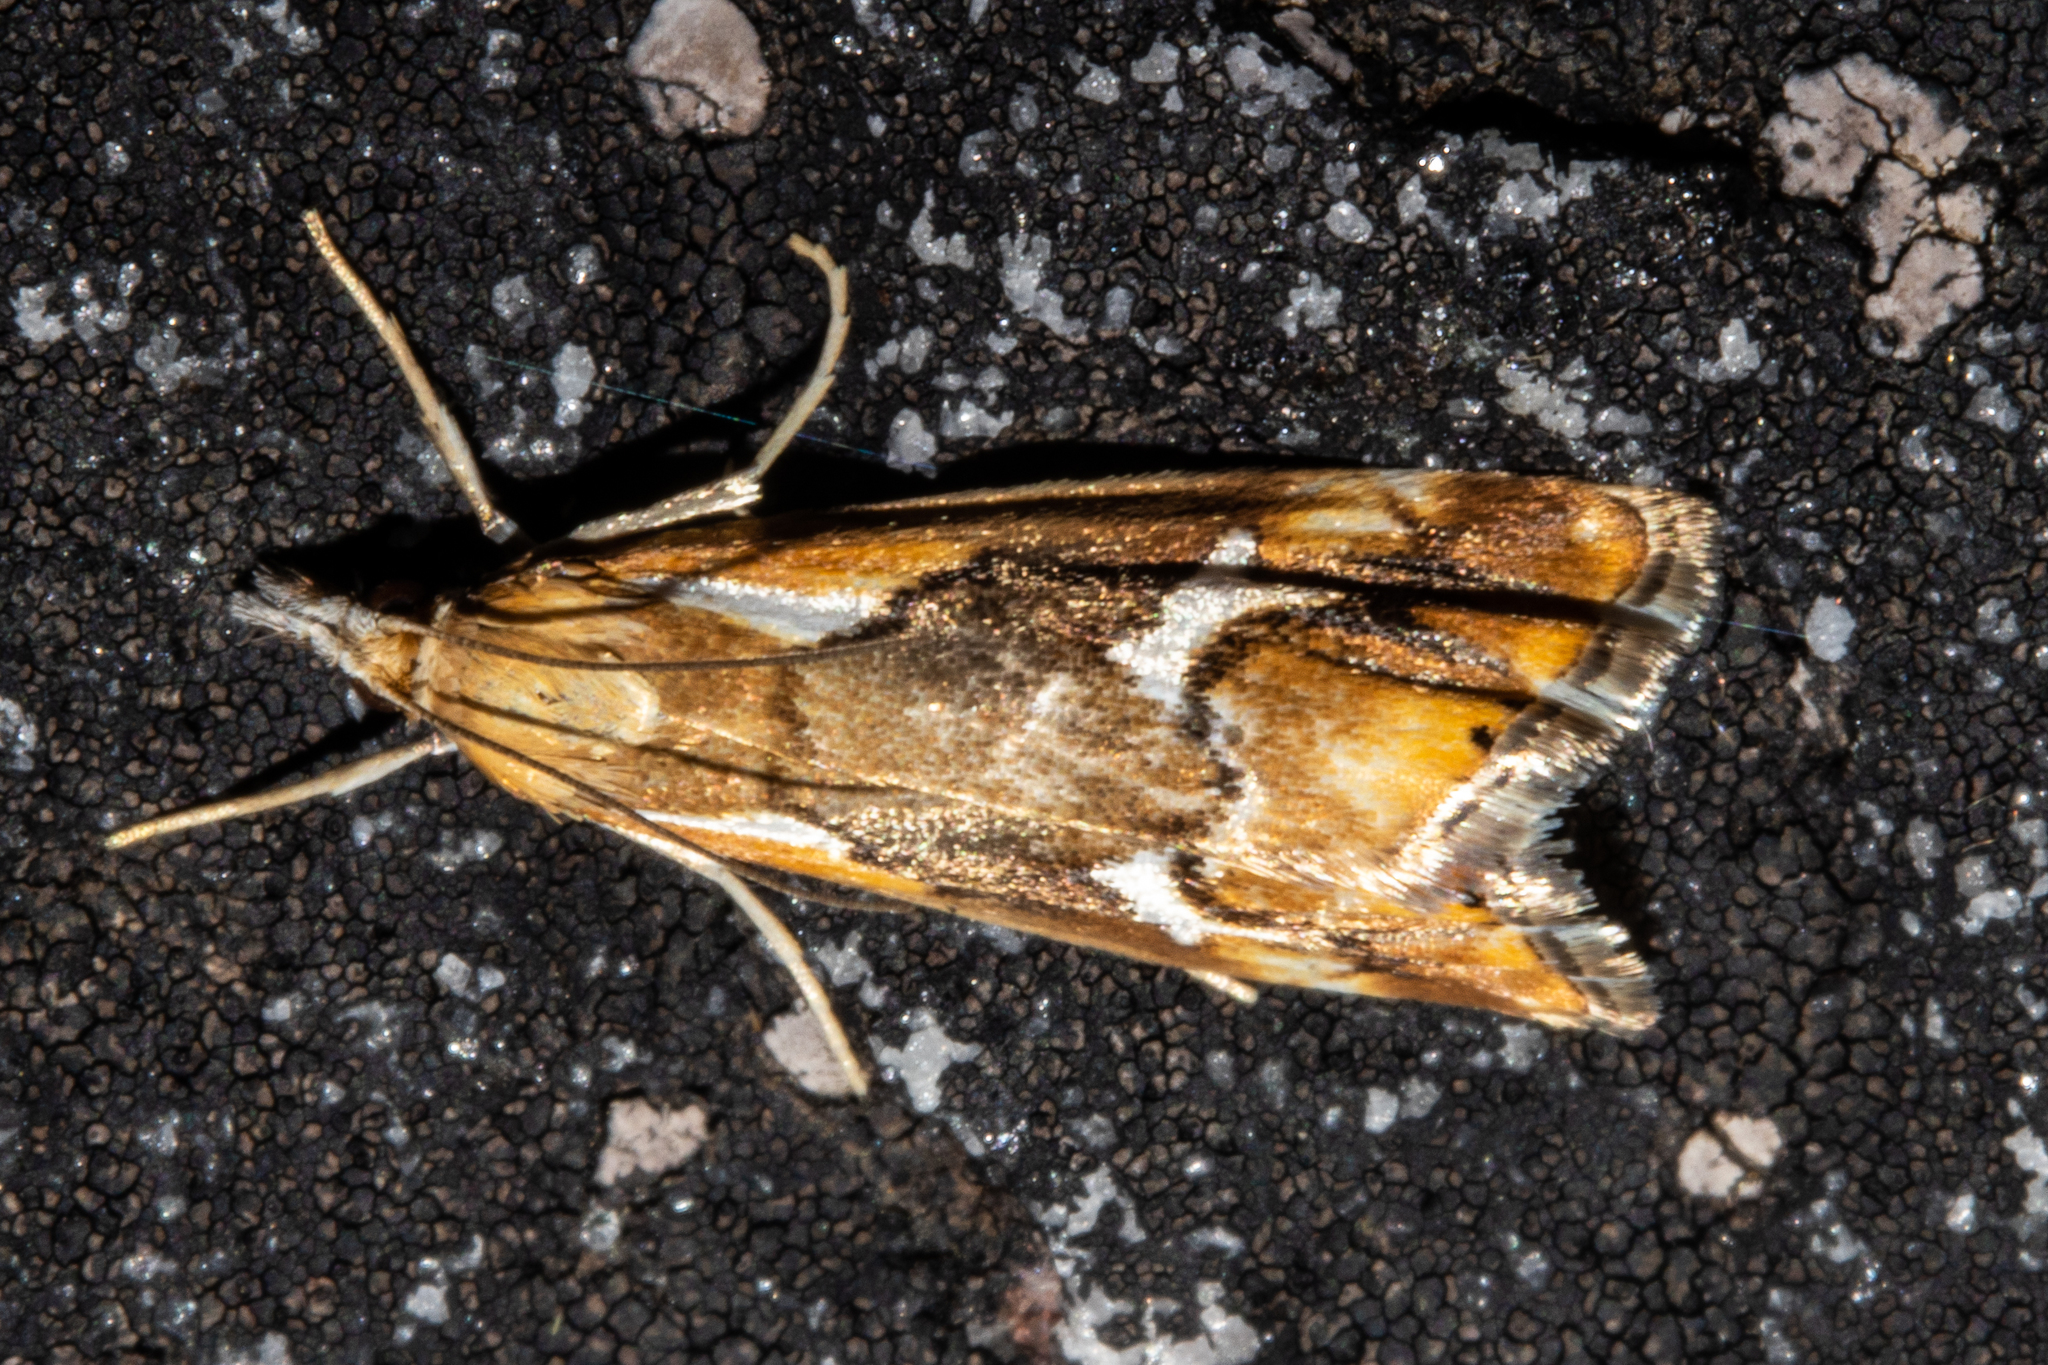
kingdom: Animalia
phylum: Arthropoda
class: Insecta
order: Lepidoptera
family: Crambidae
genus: Glaucocharis
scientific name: Glaucocharis interruptus
